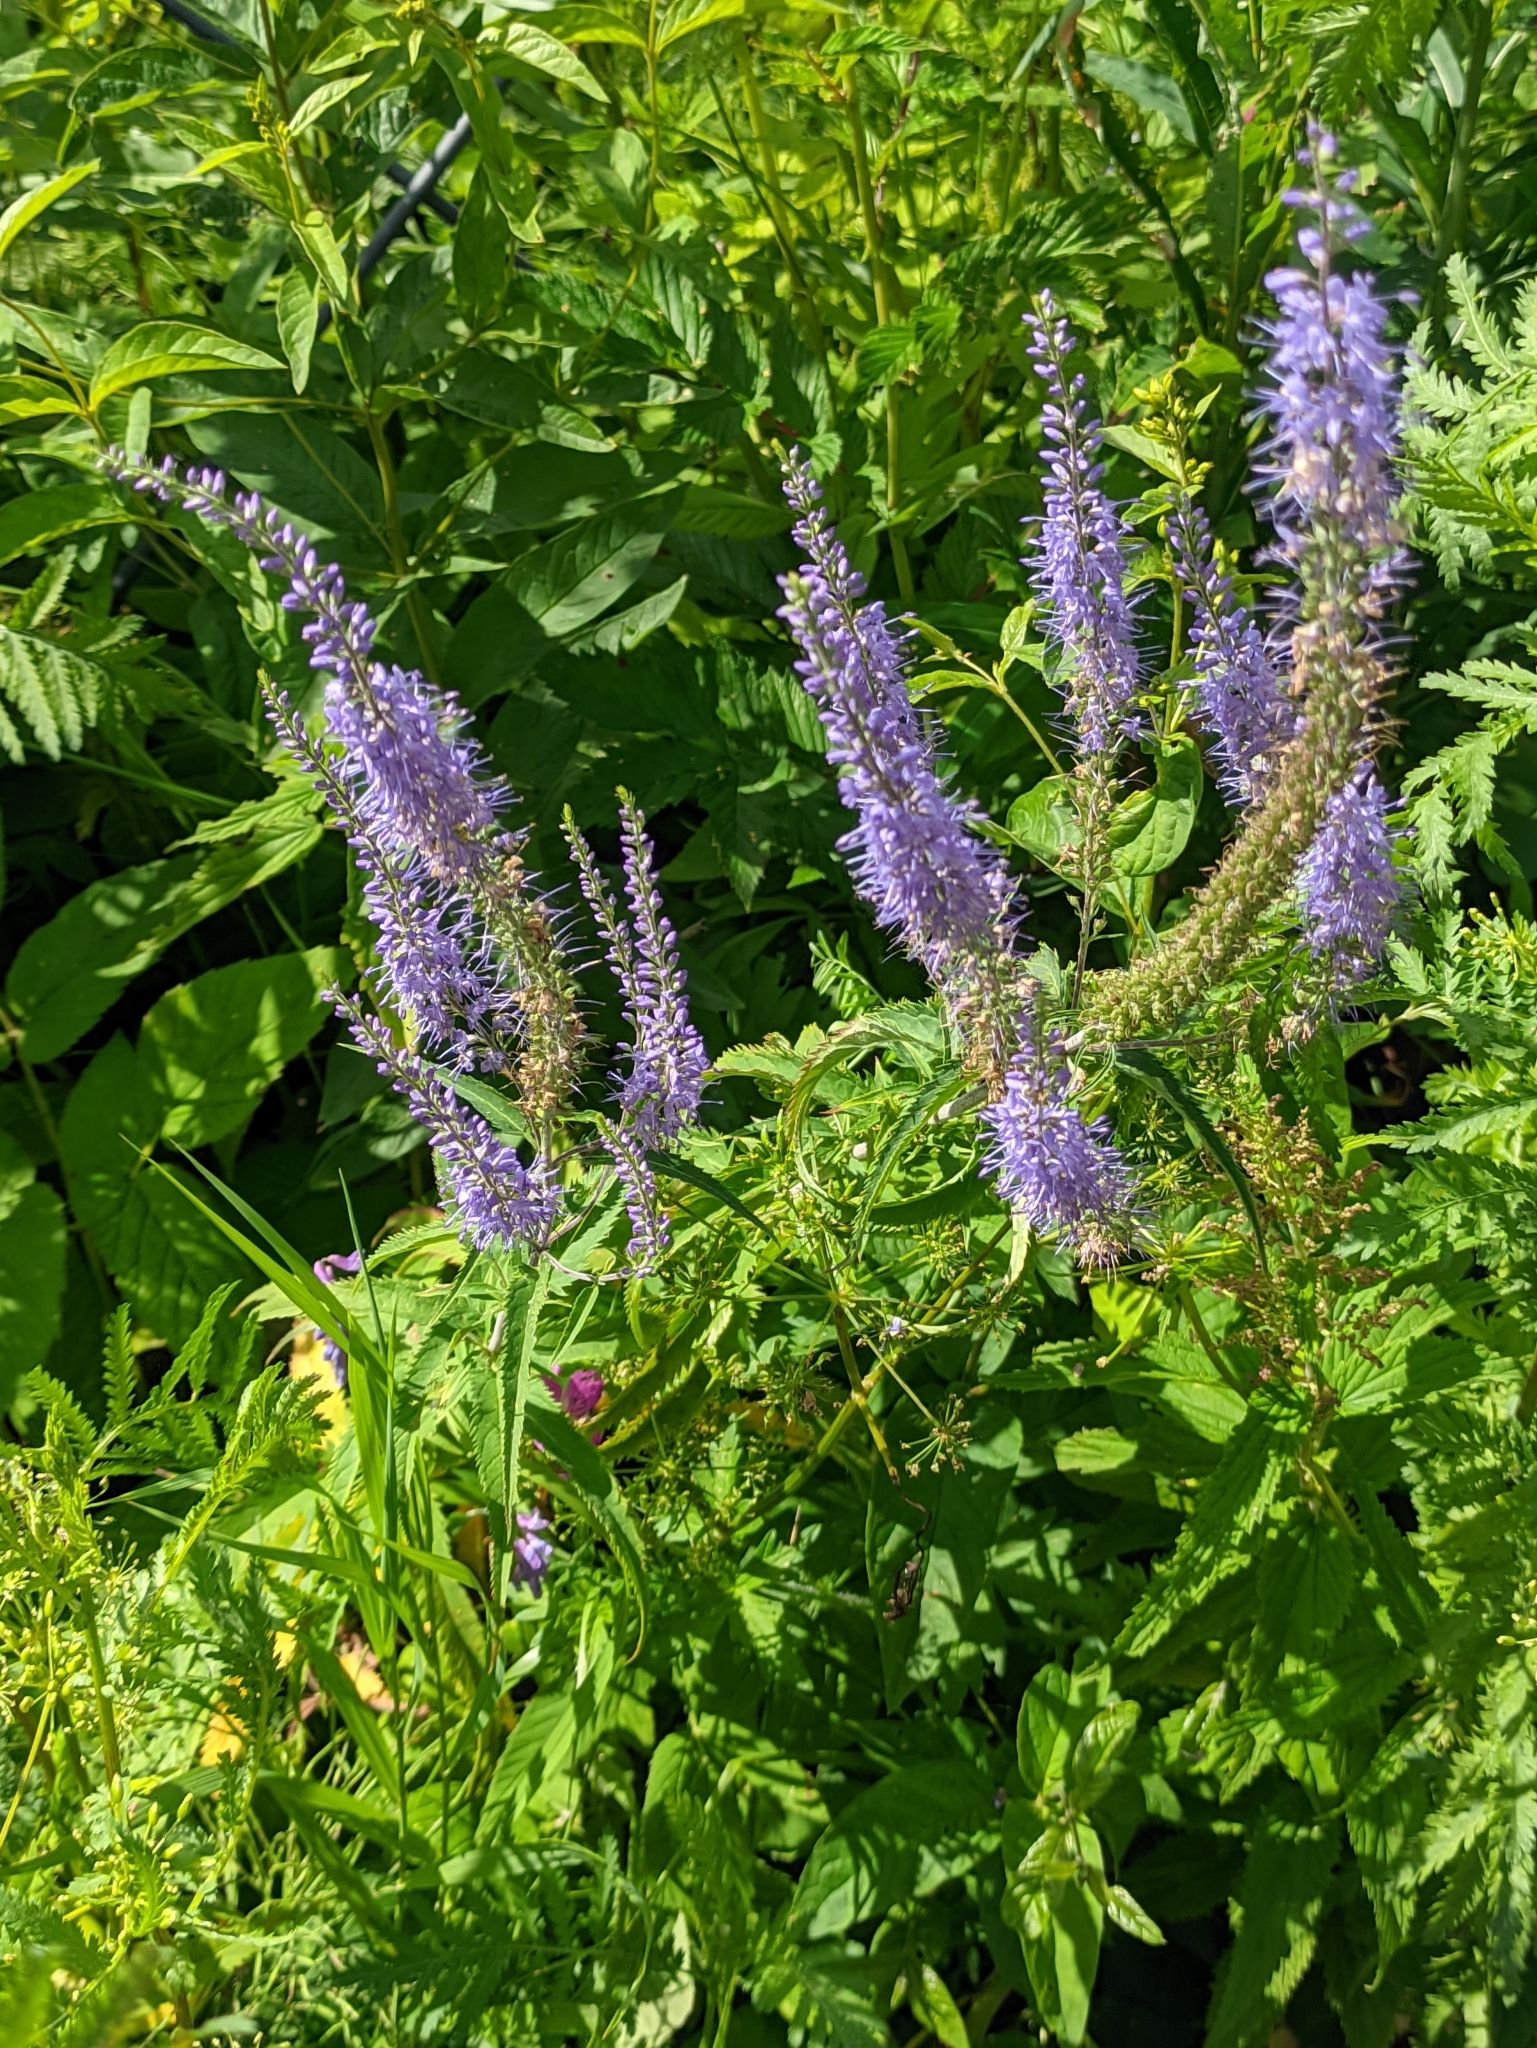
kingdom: Plantae
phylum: Tracheophyta
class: Magnoliopsida
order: Lamiales
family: Plantaginaceae
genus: Veronica
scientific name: Veronica longifolia
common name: Garden speedwell
